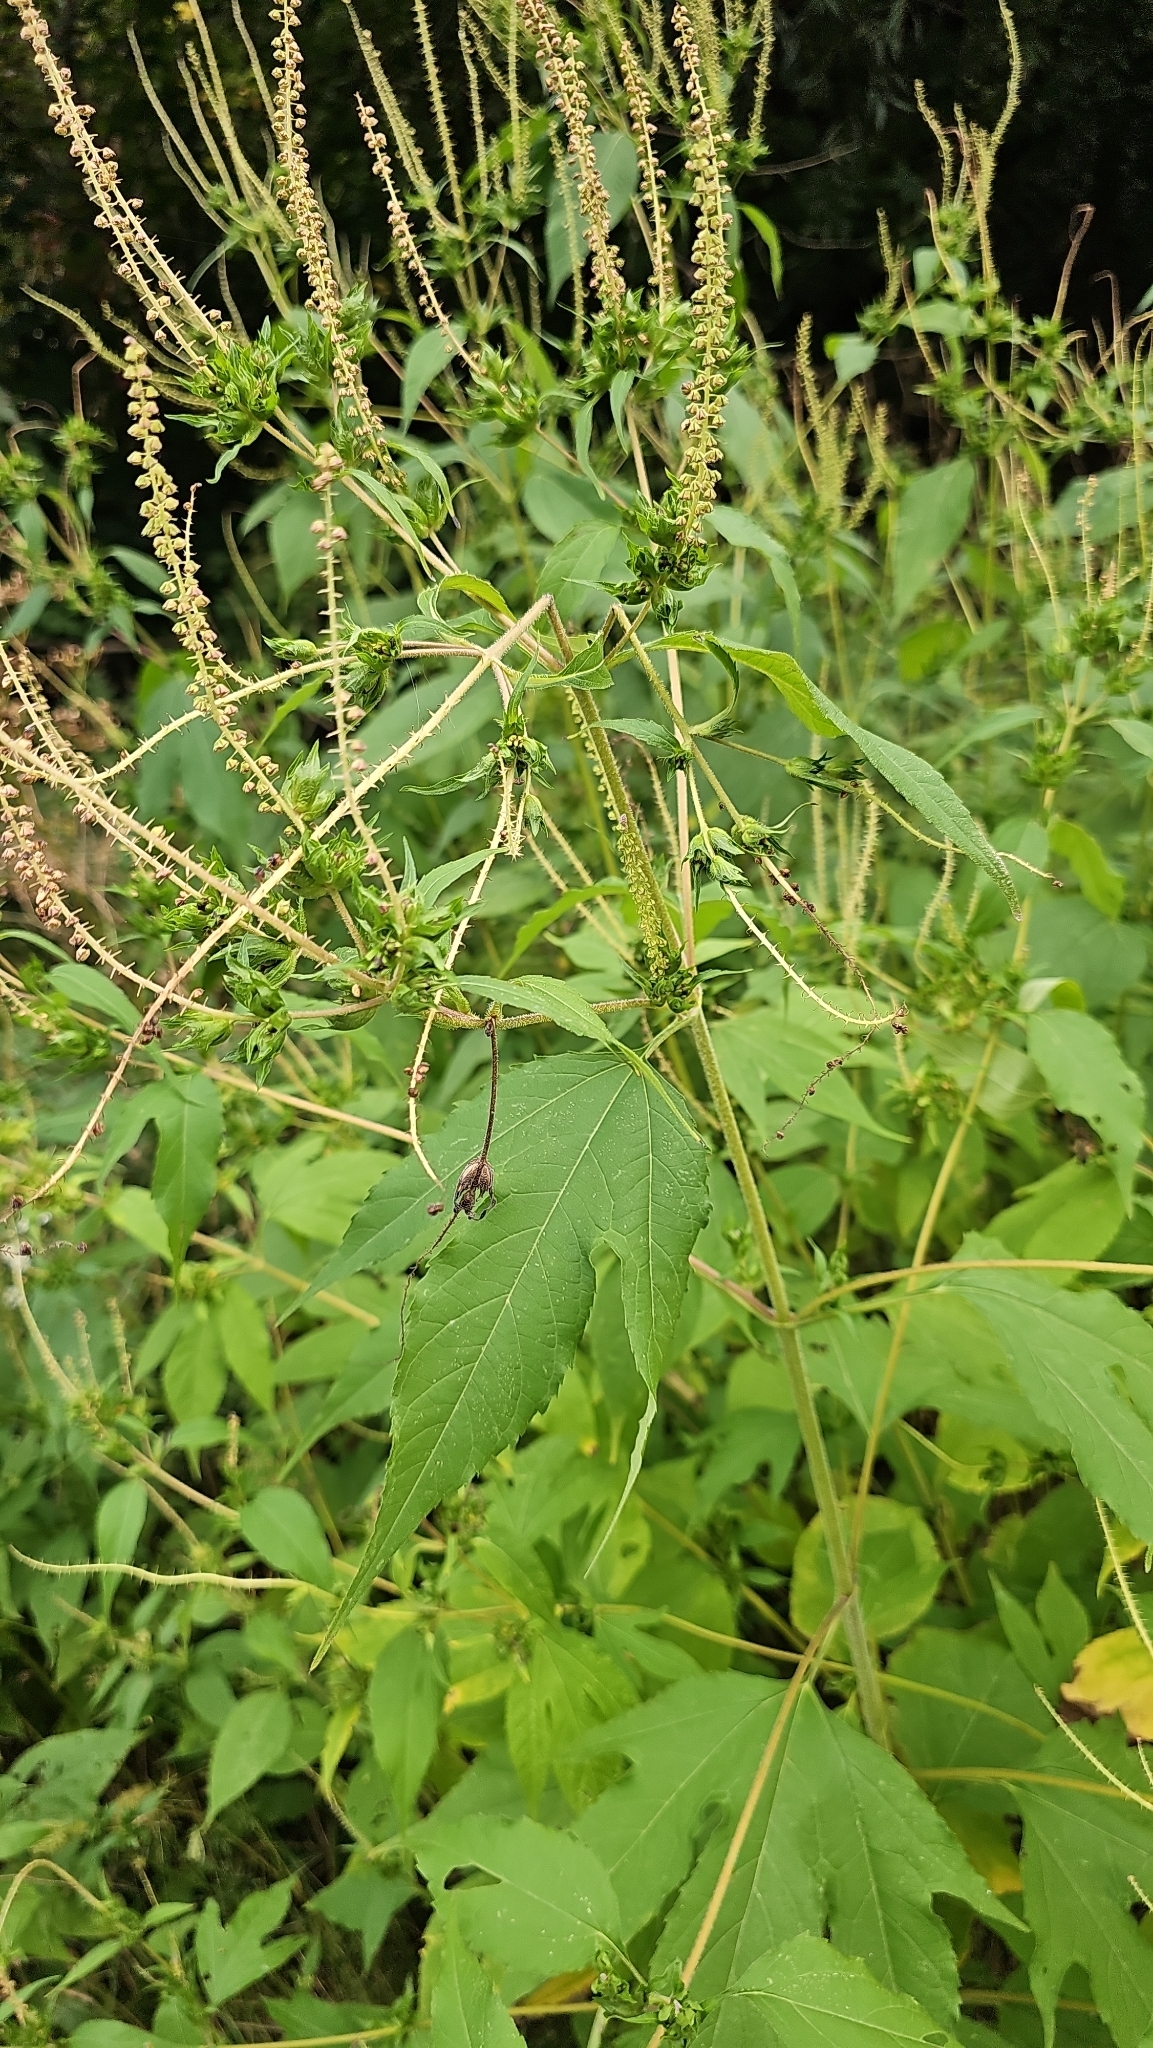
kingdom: Plantae
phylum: Tracheophyta
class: Magnoliopsida
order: Asterales
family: Asteraceae
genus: Ambrosia
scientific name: Ambrosia trifida
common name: Giant ragweed
